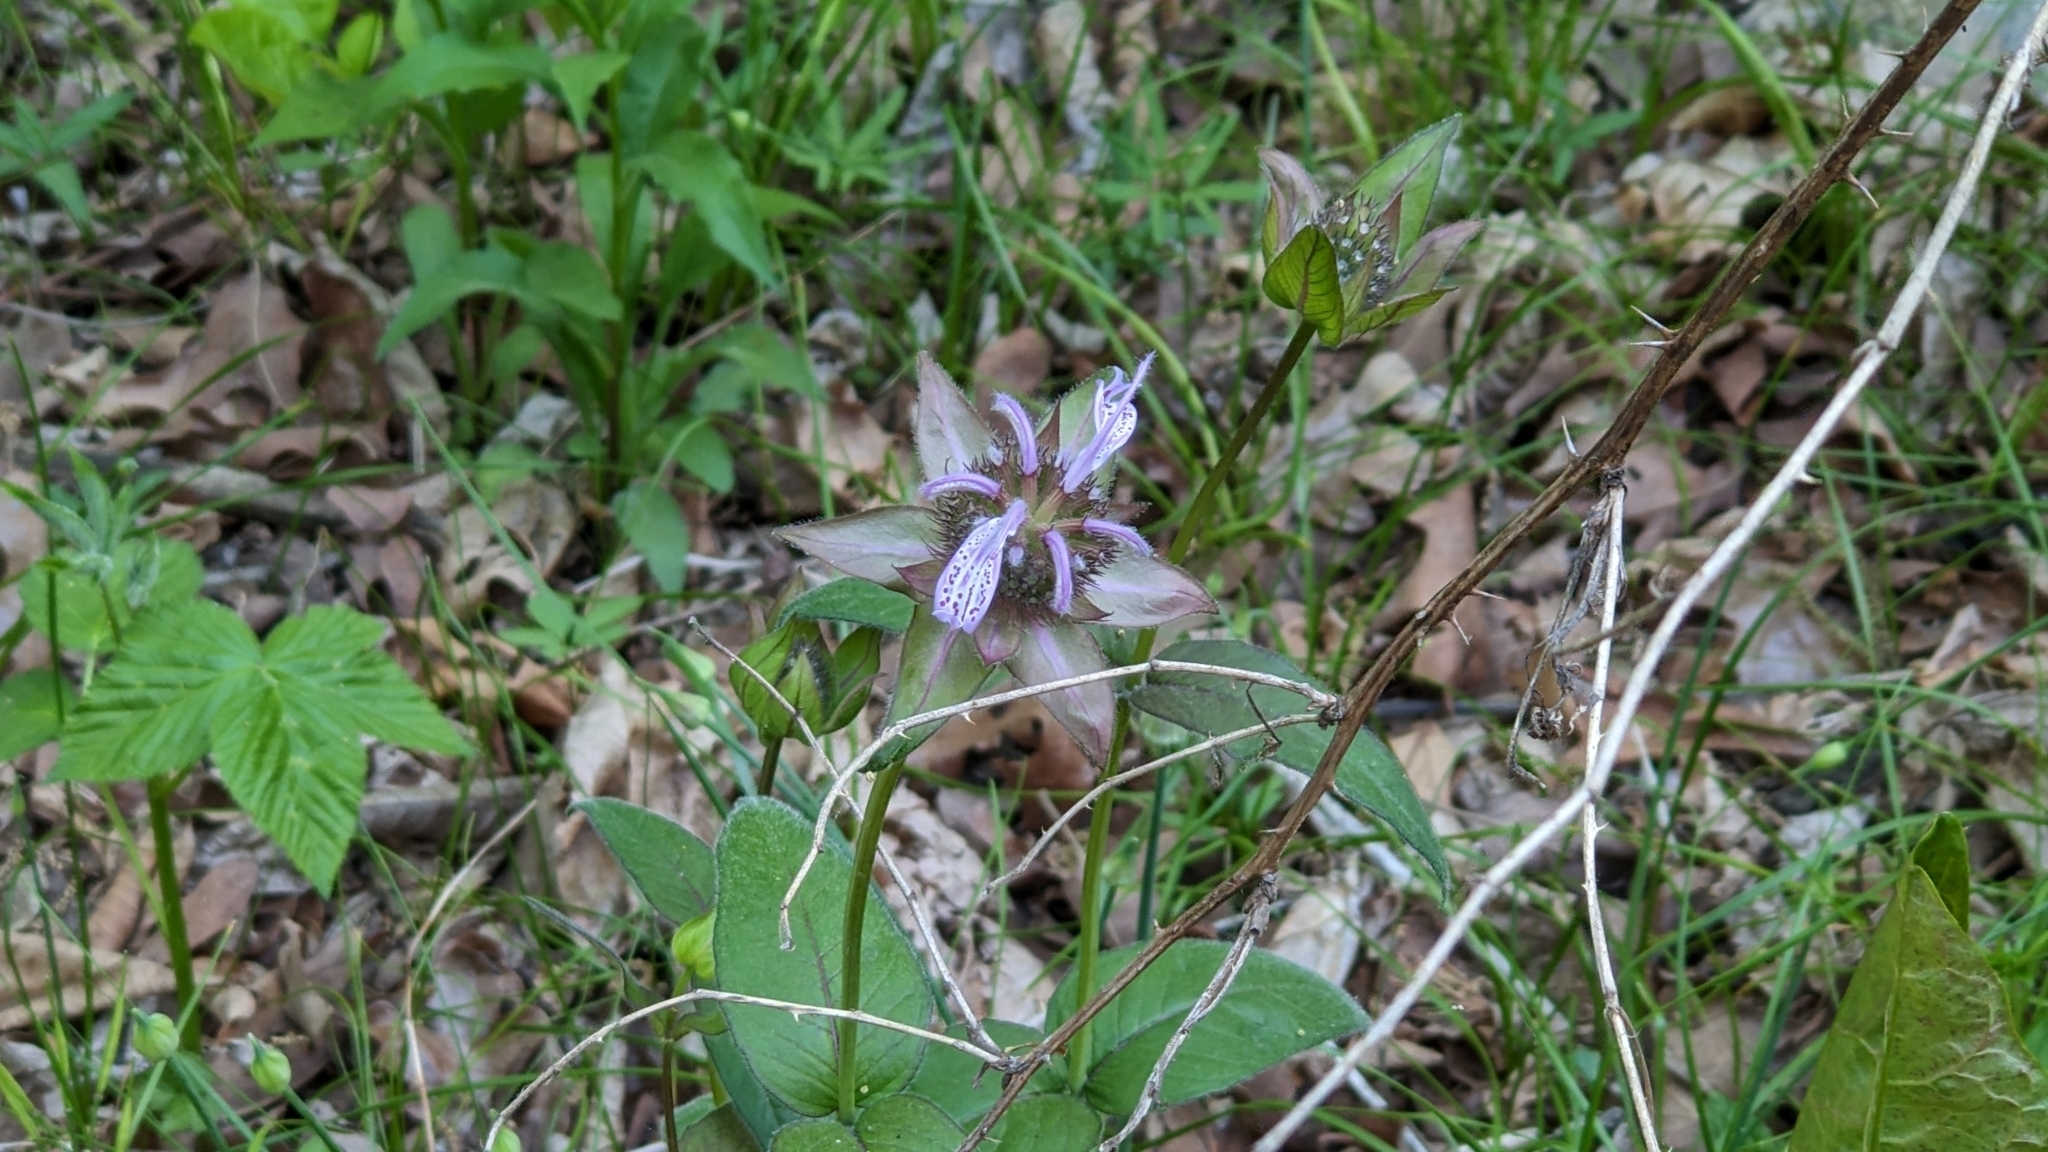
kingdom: Plantae
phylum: Tracheophyta
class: Magnoliopsida
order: Lamiales
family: Lamiaceae
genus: Monarda
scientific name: Monarda bradburiana
